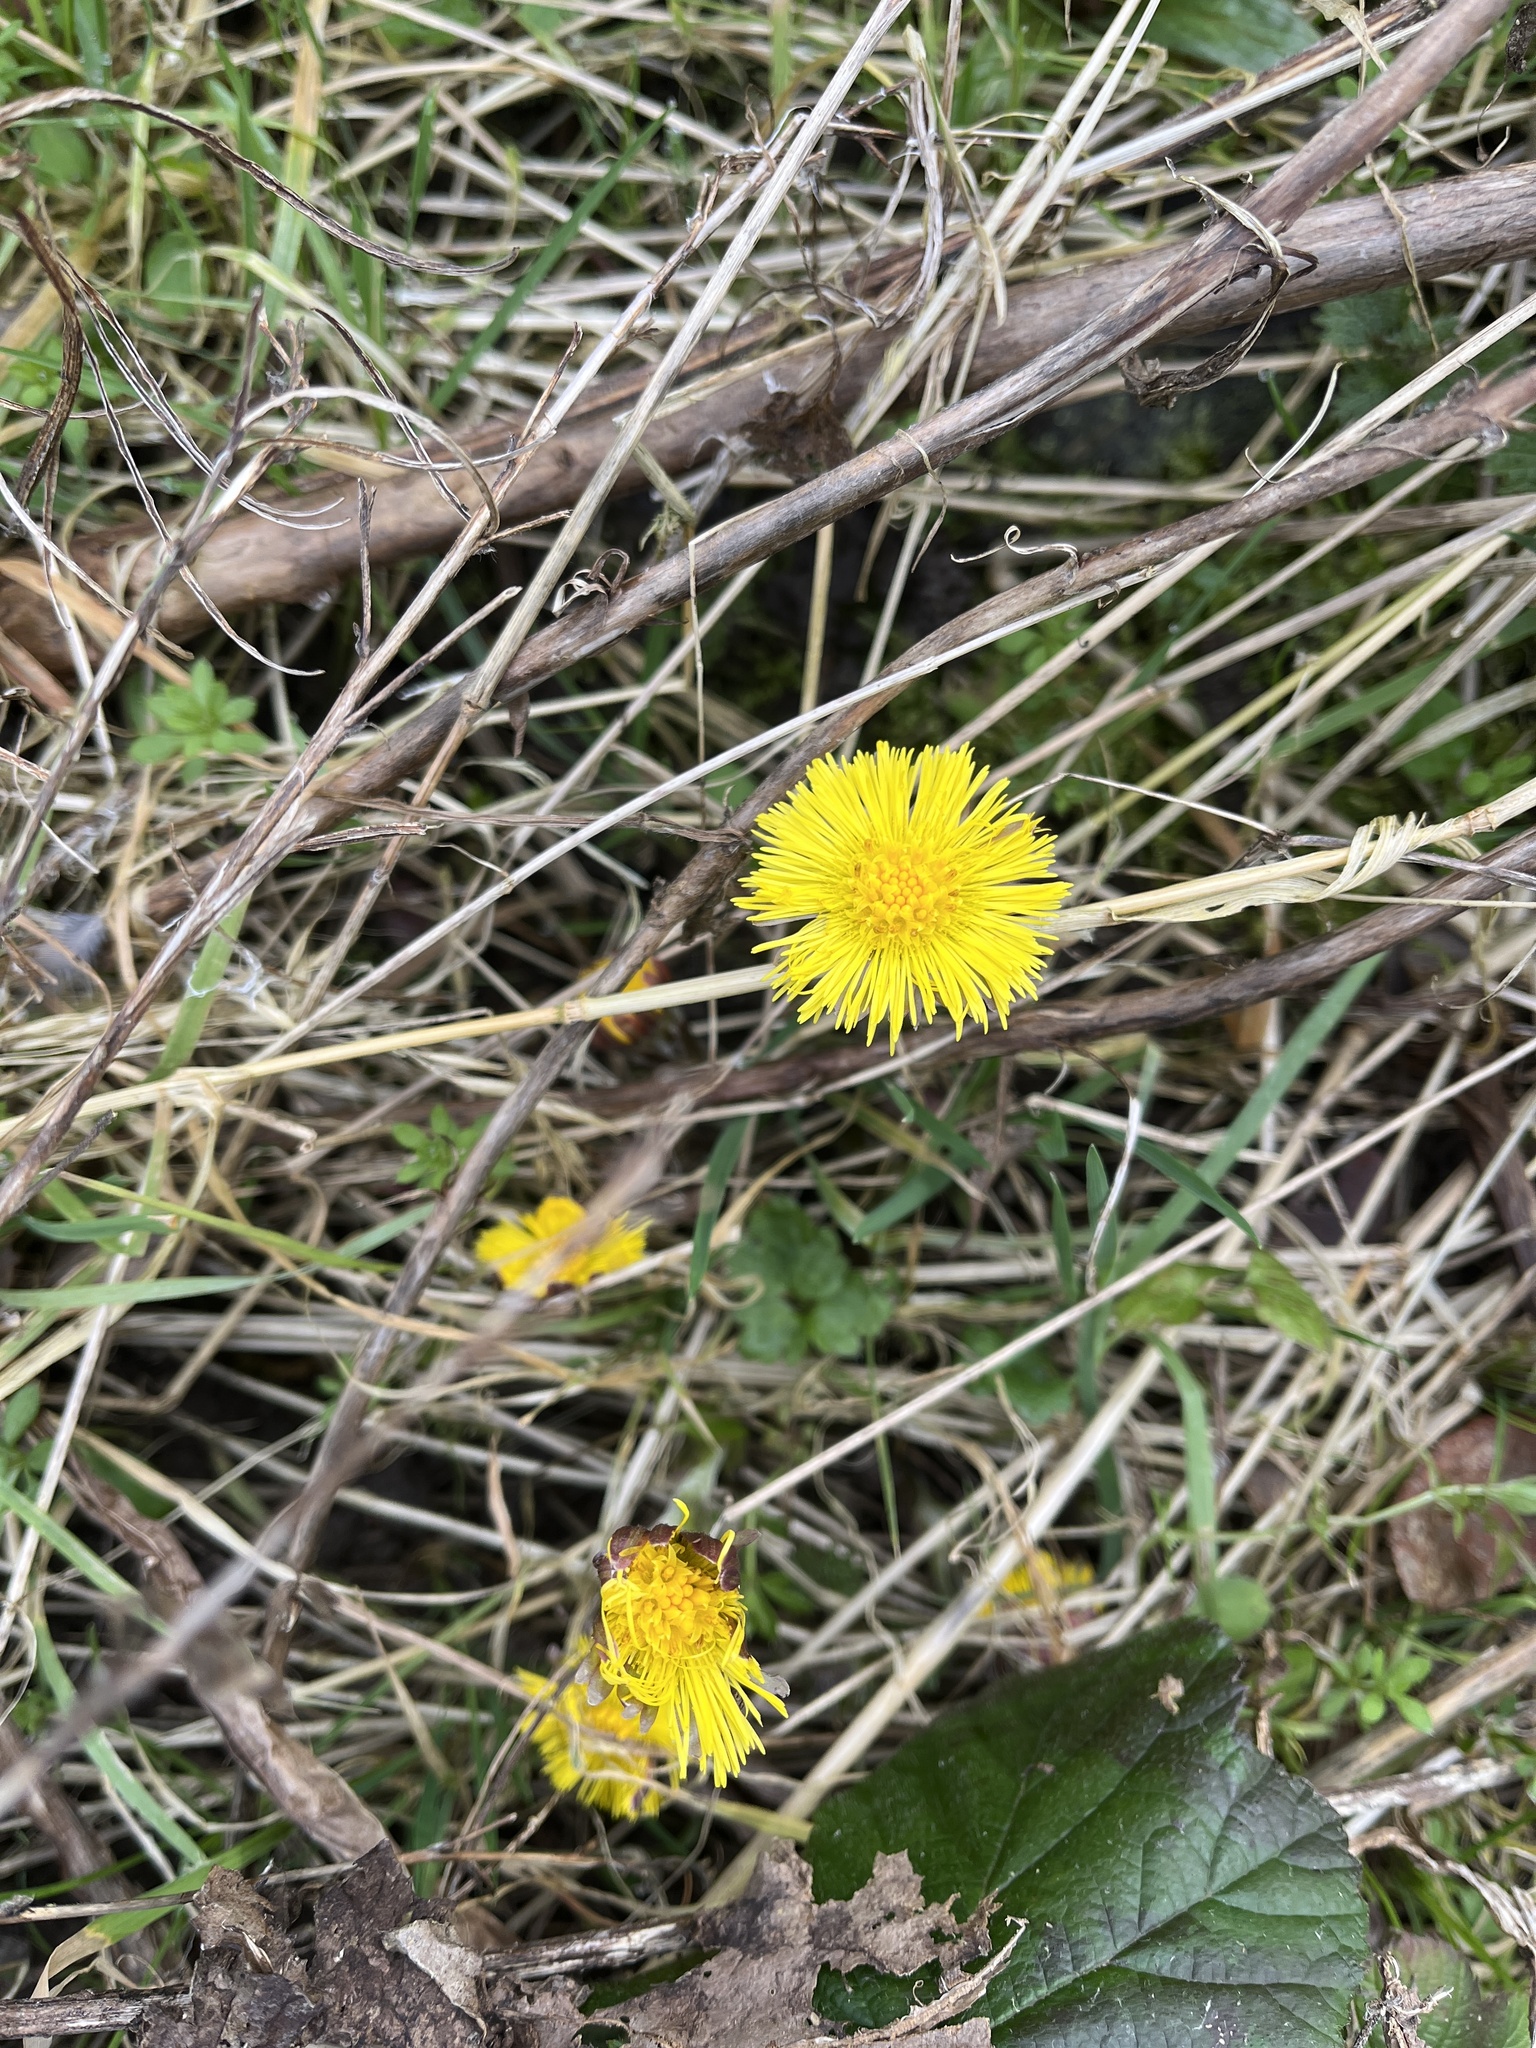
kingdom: Plantae
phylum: Tracheophyta
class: Magnoliopsida
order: Asterales
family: Asteraceae
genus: Tussilago
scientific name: Tussilago farfara
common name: Coltsfoot
